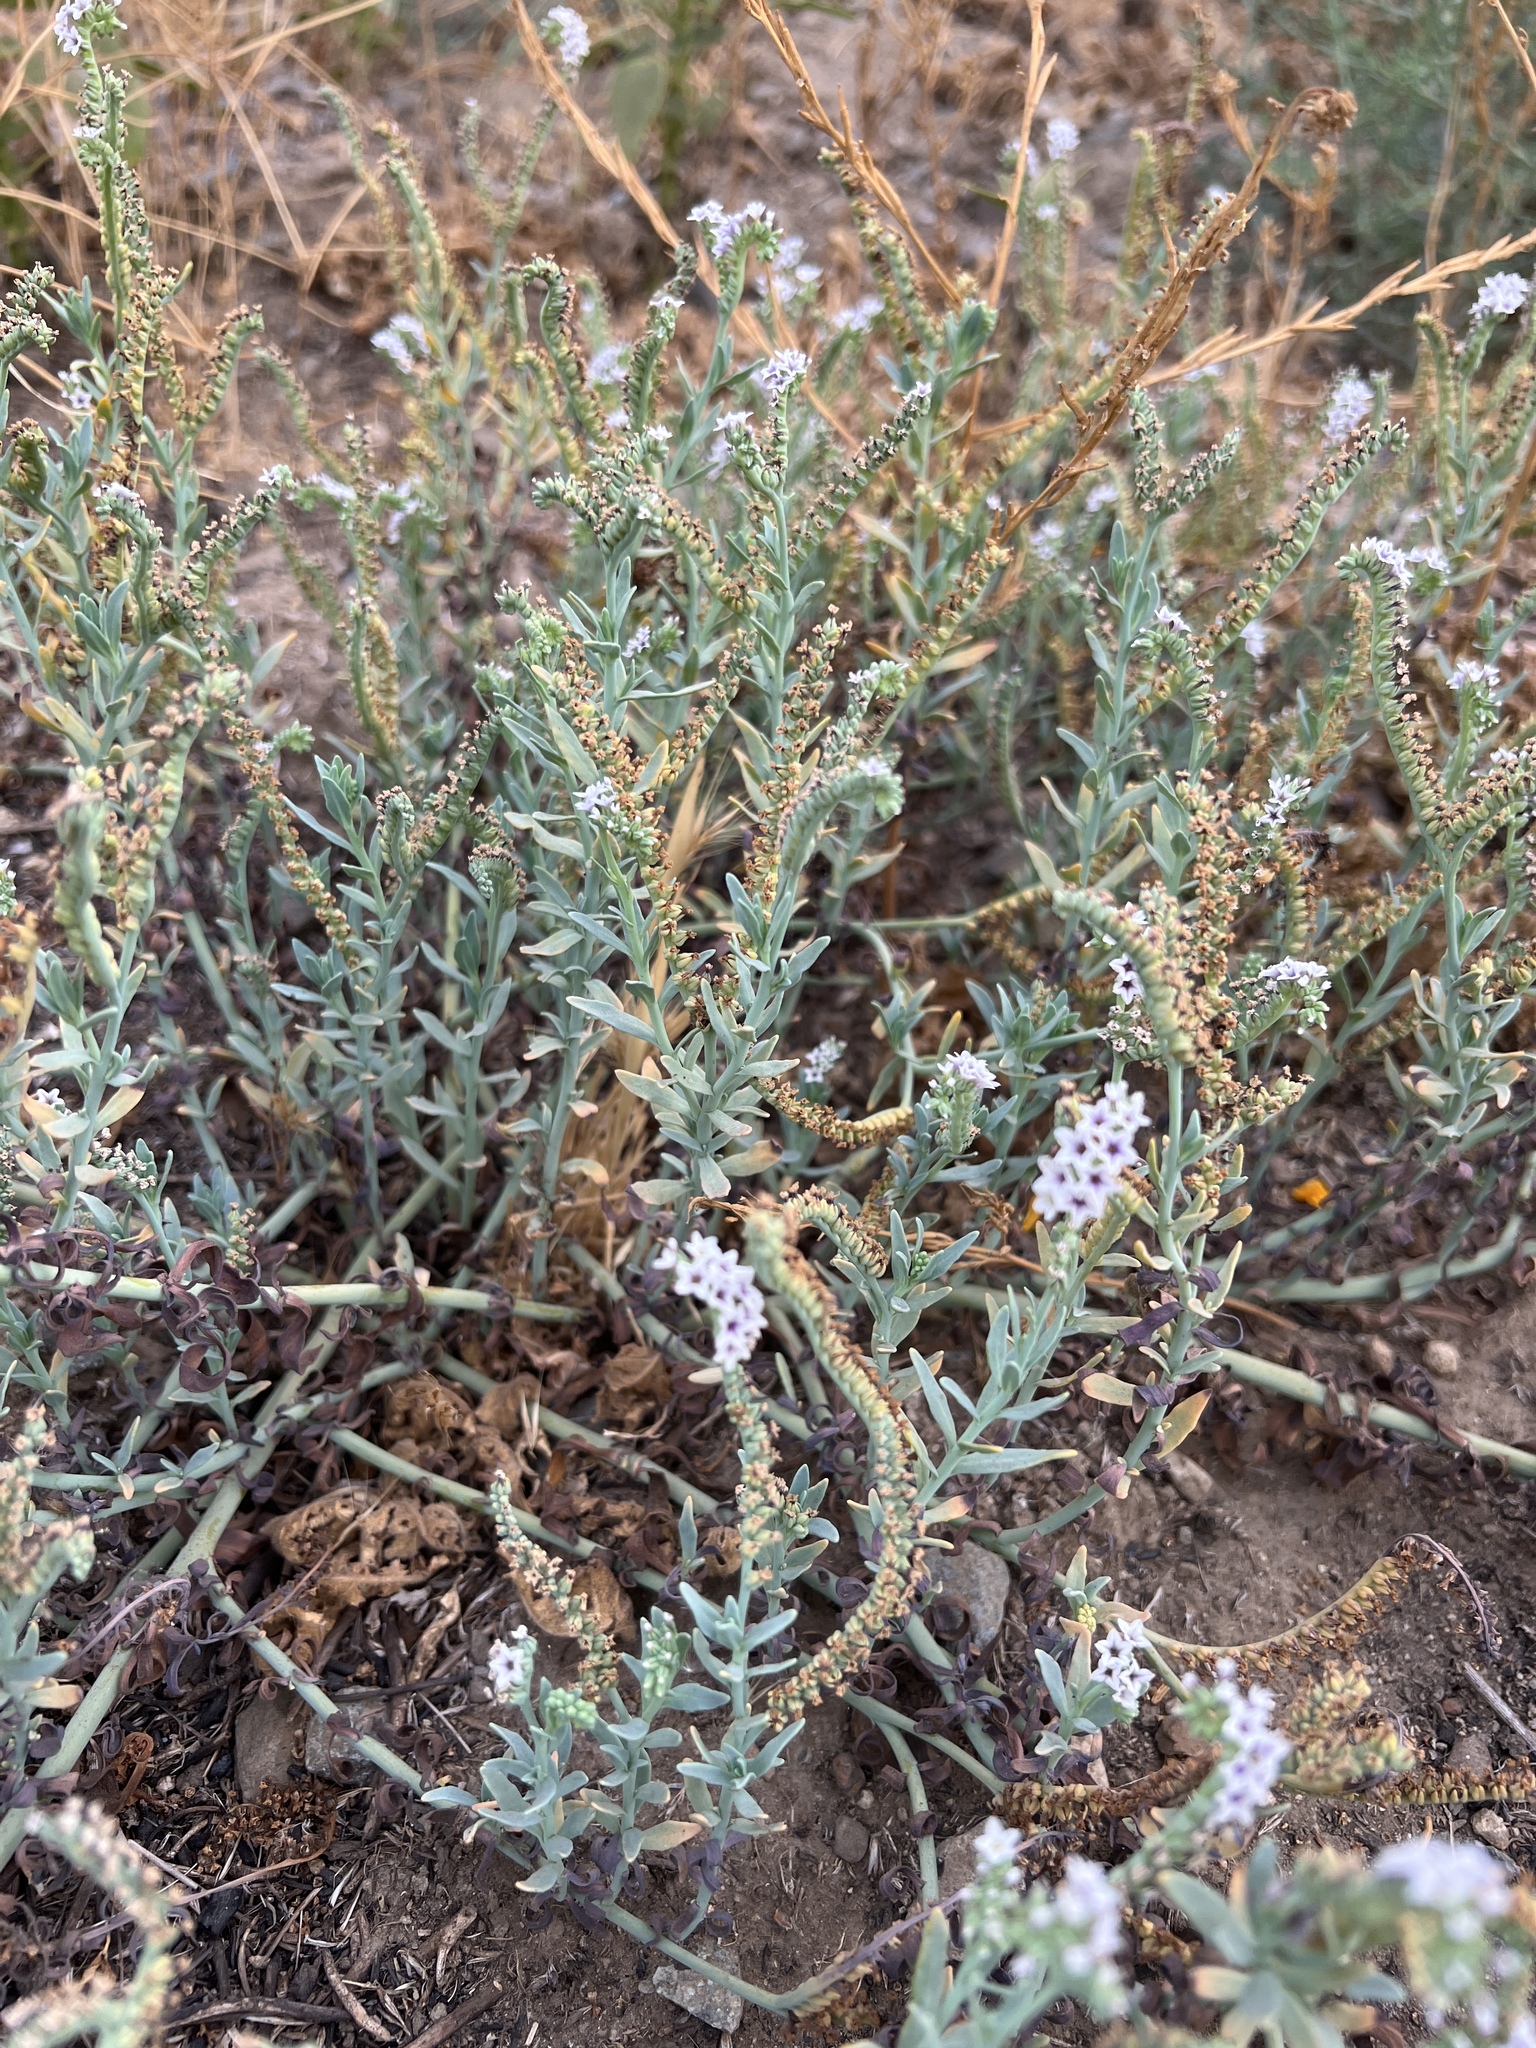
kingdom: Plantae
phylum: Tracheophyta
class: Magnoliopsida
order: Boraginales
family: Heliotropiaceae
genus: Heliotropium
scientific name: Heliotropium curassavicum
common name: Seaside heliotrope
